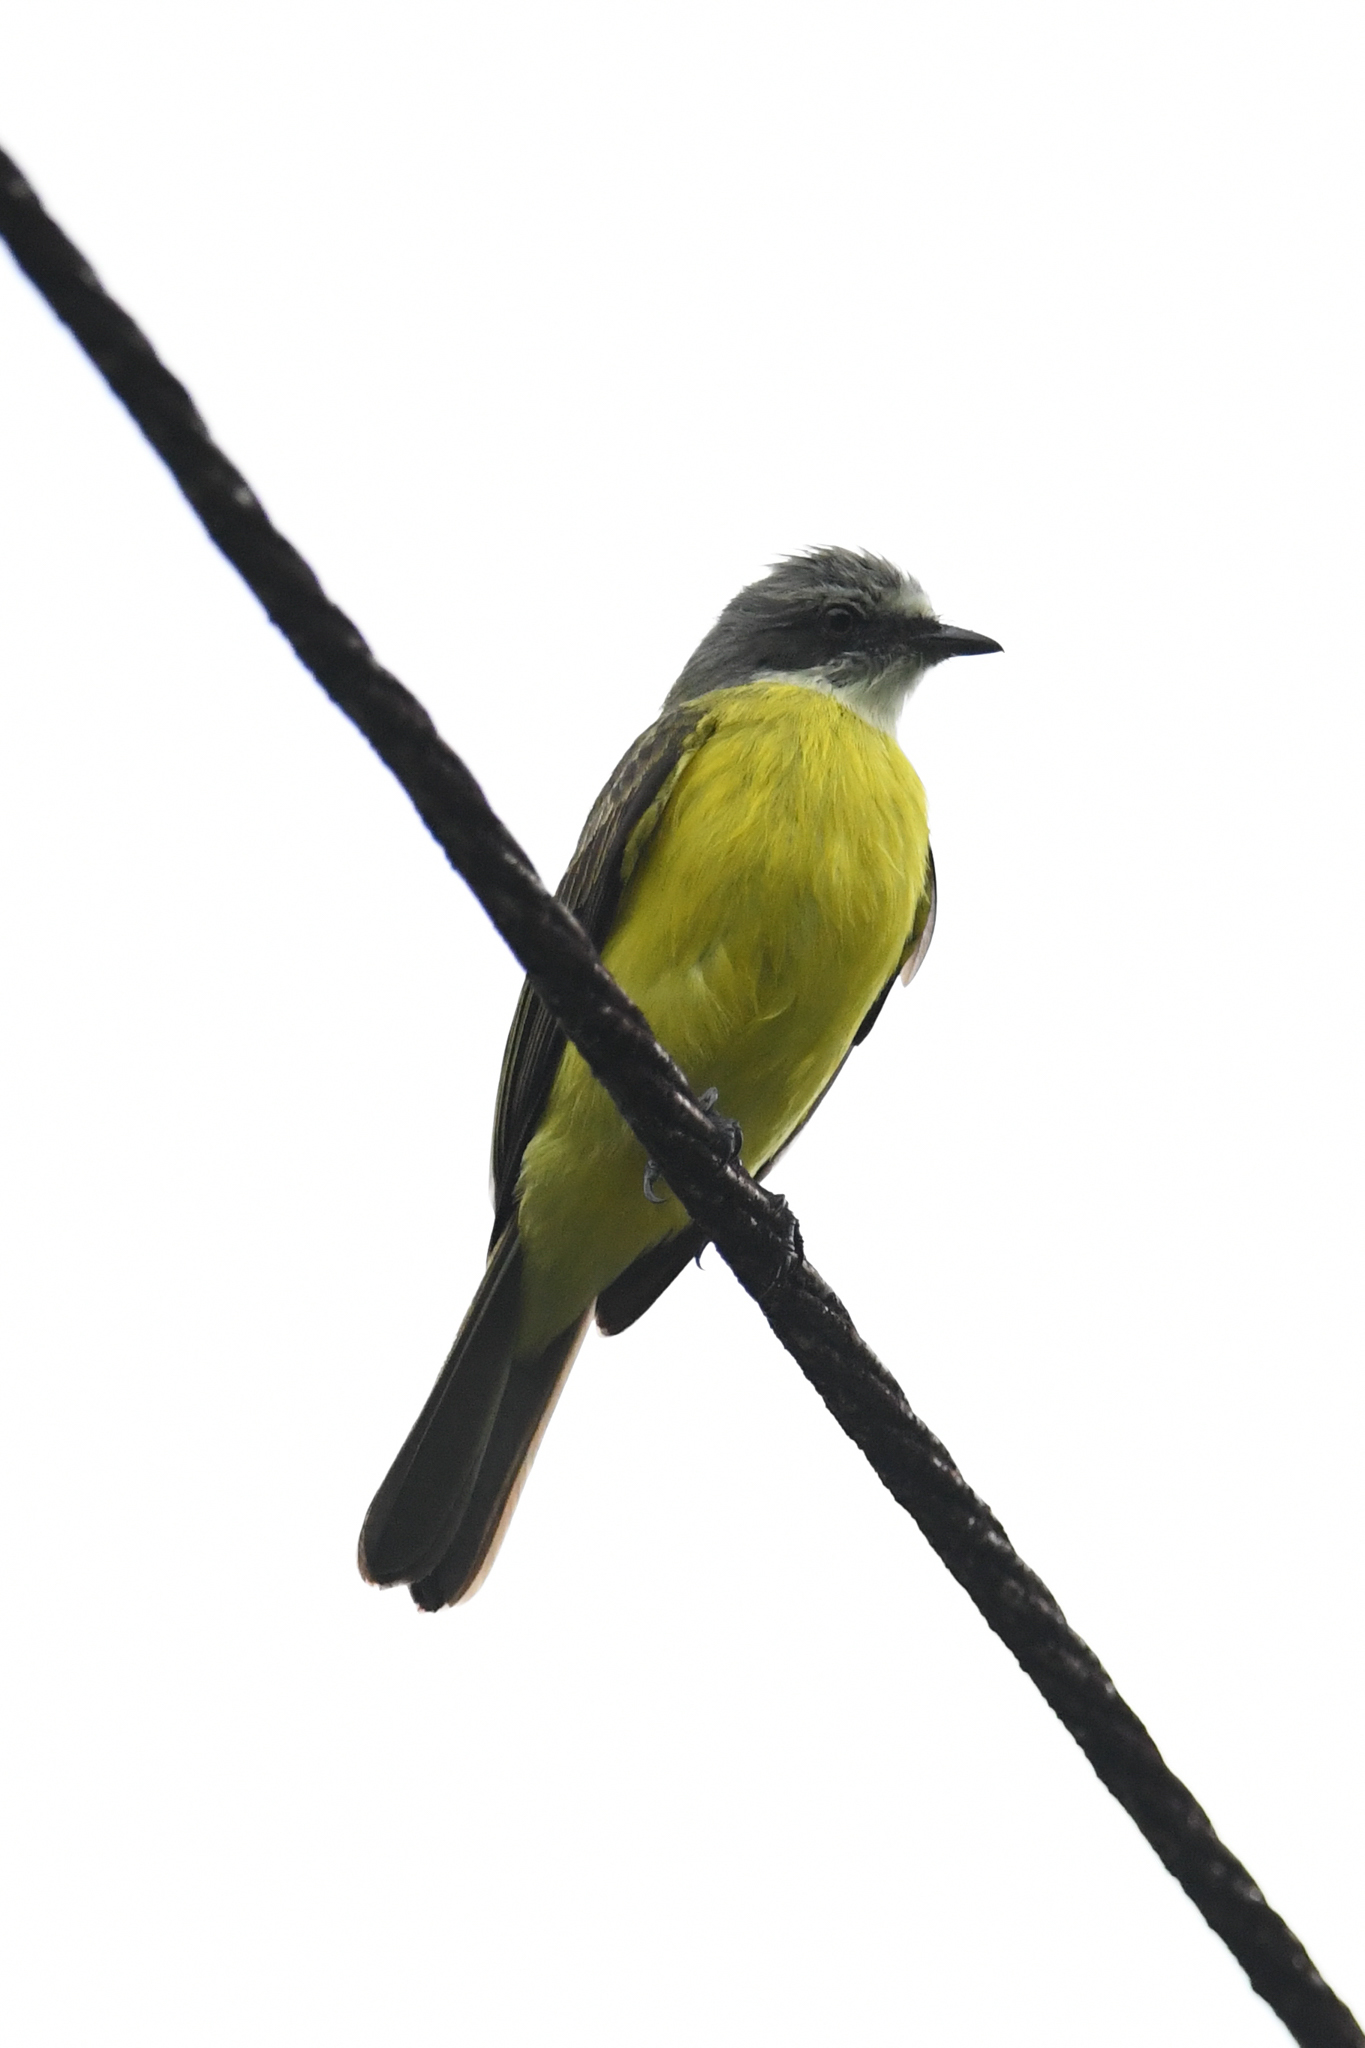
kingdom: Animalia
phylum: Chordata
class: Aves
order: Passeriformes
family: Tyrannidae
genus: Myiozetetes
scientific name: Myiozetetes granadensis
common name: Gray-capped flycatcher
